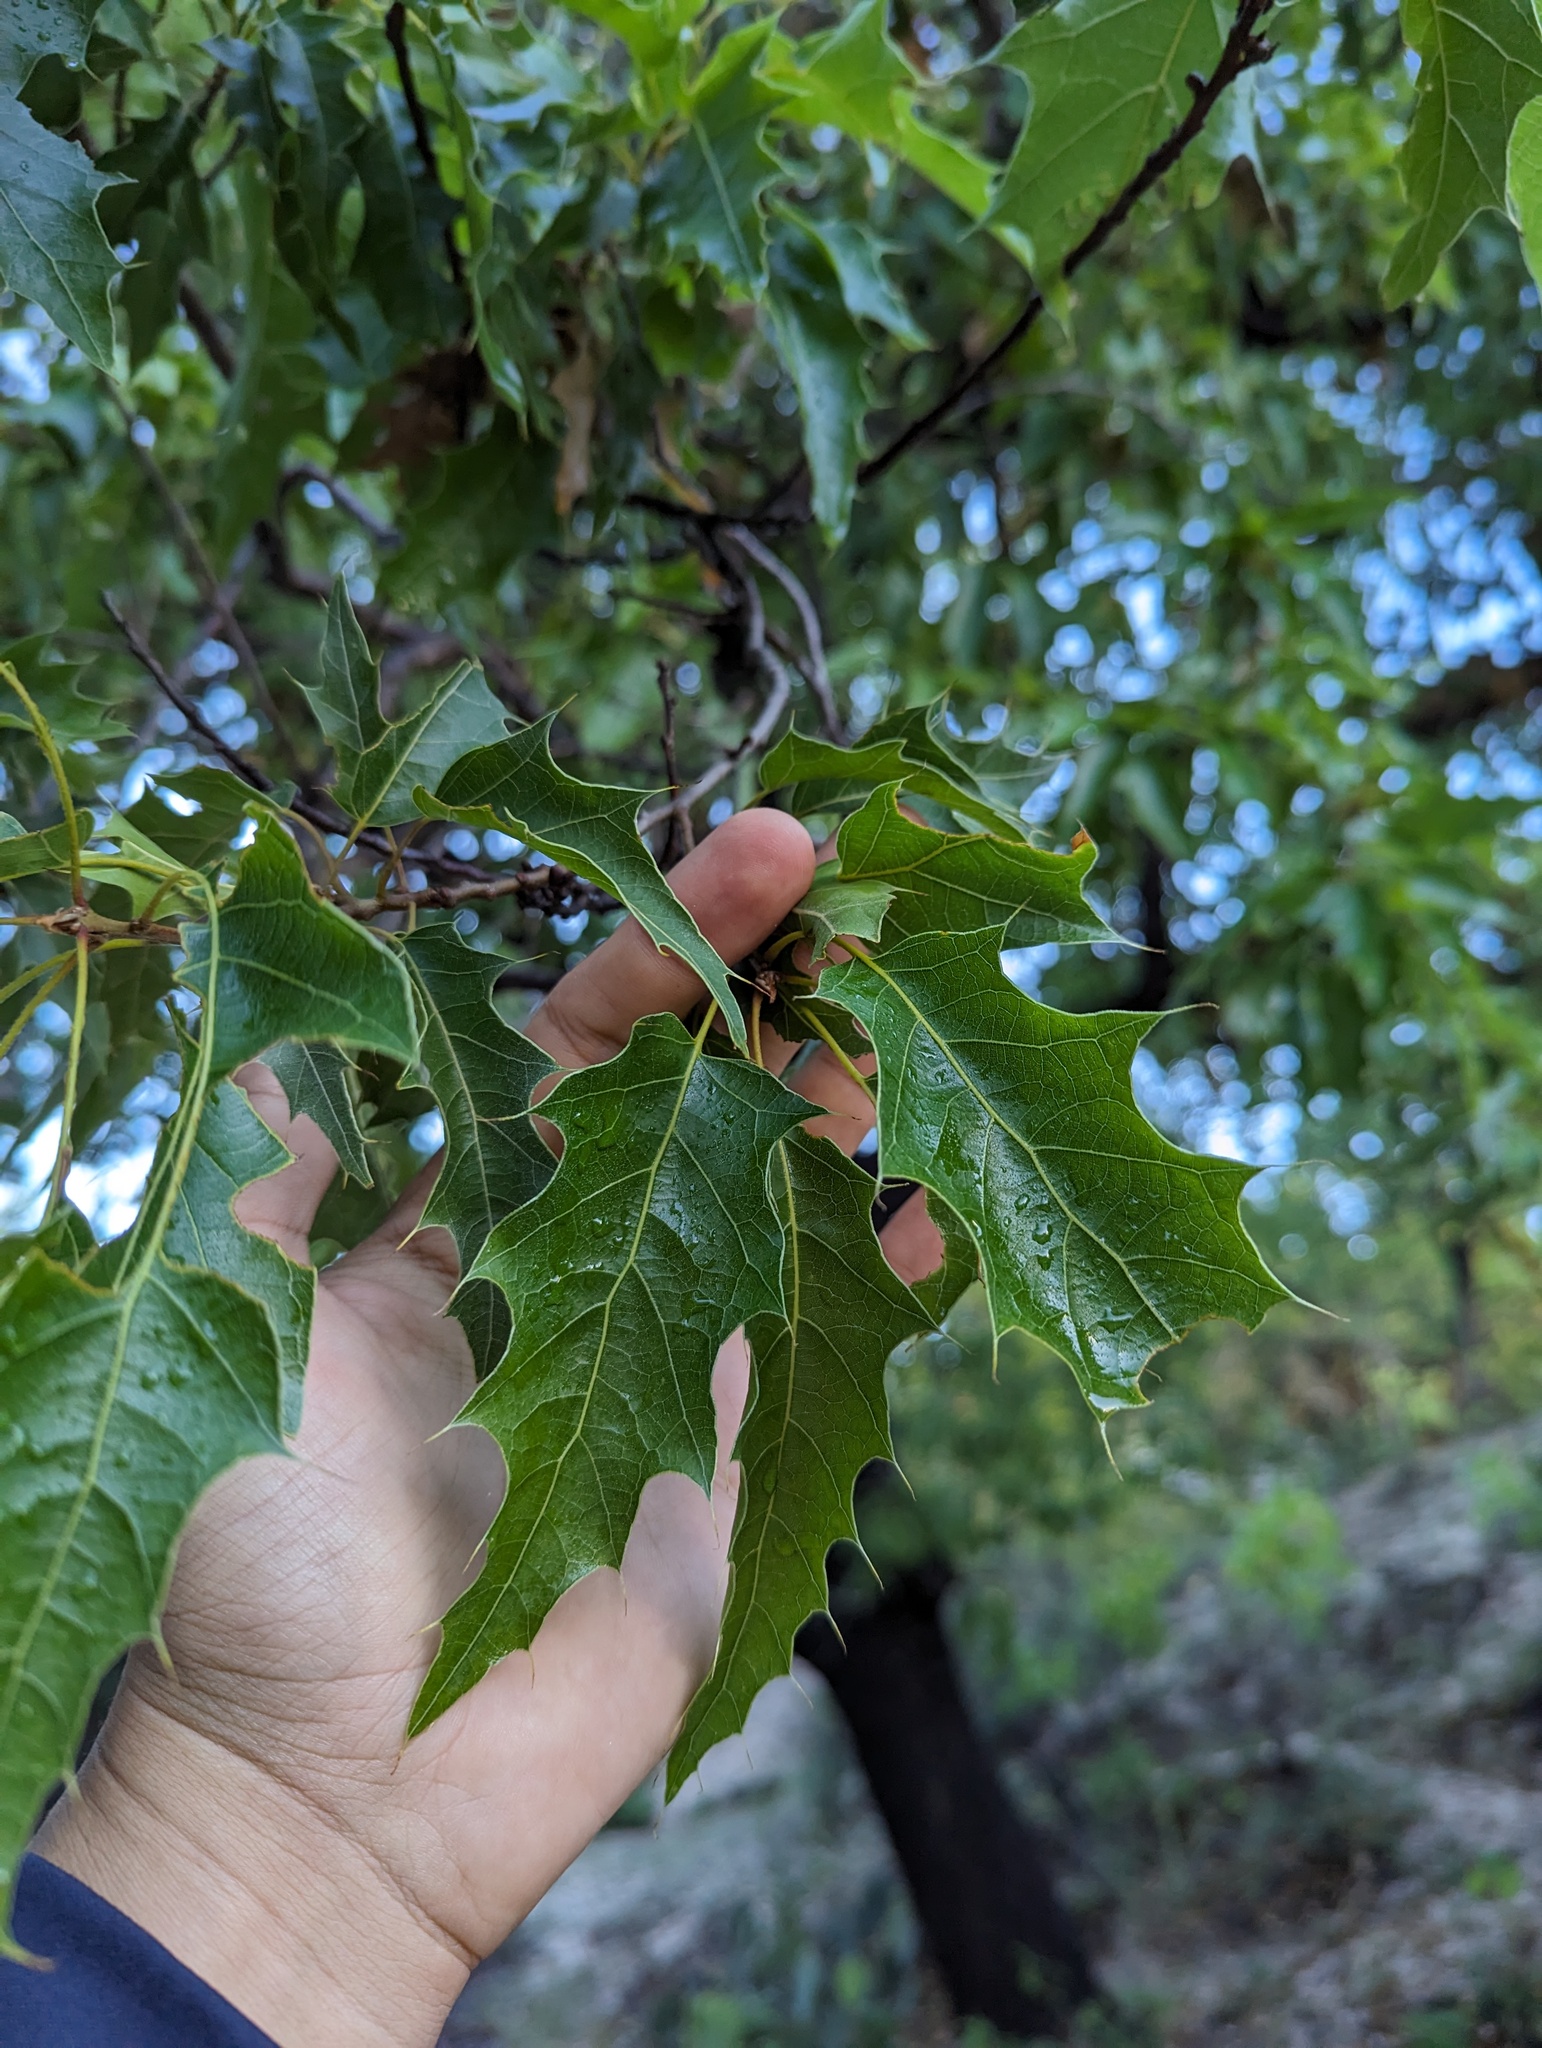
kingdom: Plantae
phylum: Tracheophyta
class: Magnoliopsida
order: Fagales
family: Fagaceae
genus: Quercus
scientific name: Quercus albocincta
